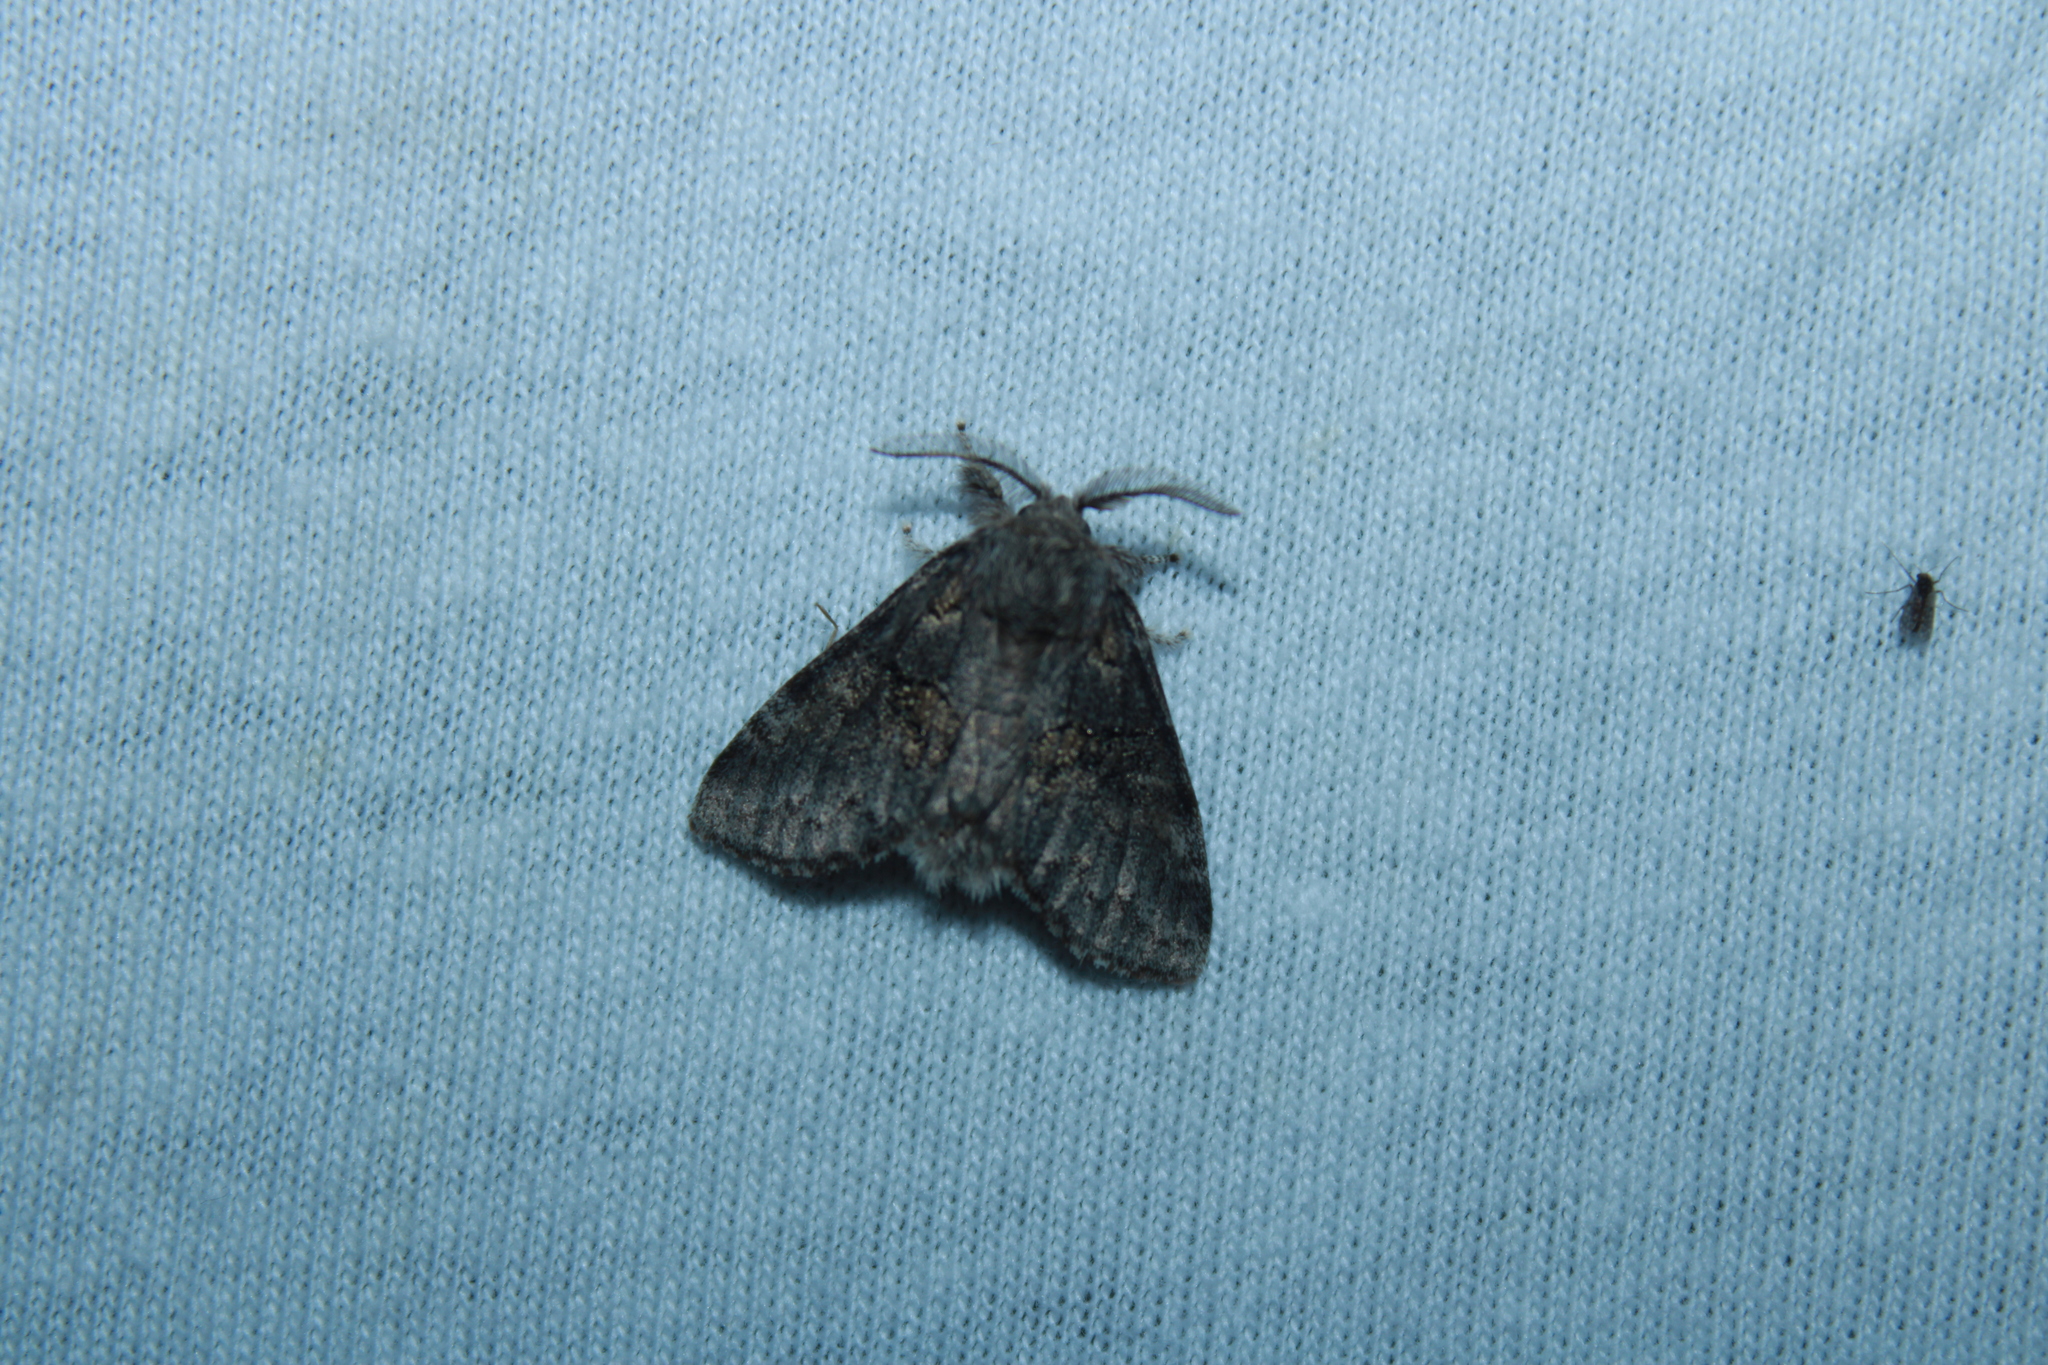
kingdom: Animalia
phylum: Arthropoda
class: Insecta
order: Lepidoptera
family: Notodontidae
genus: Gluphisia
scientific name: Gluphisia septentrionis
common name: Common gluphisia
